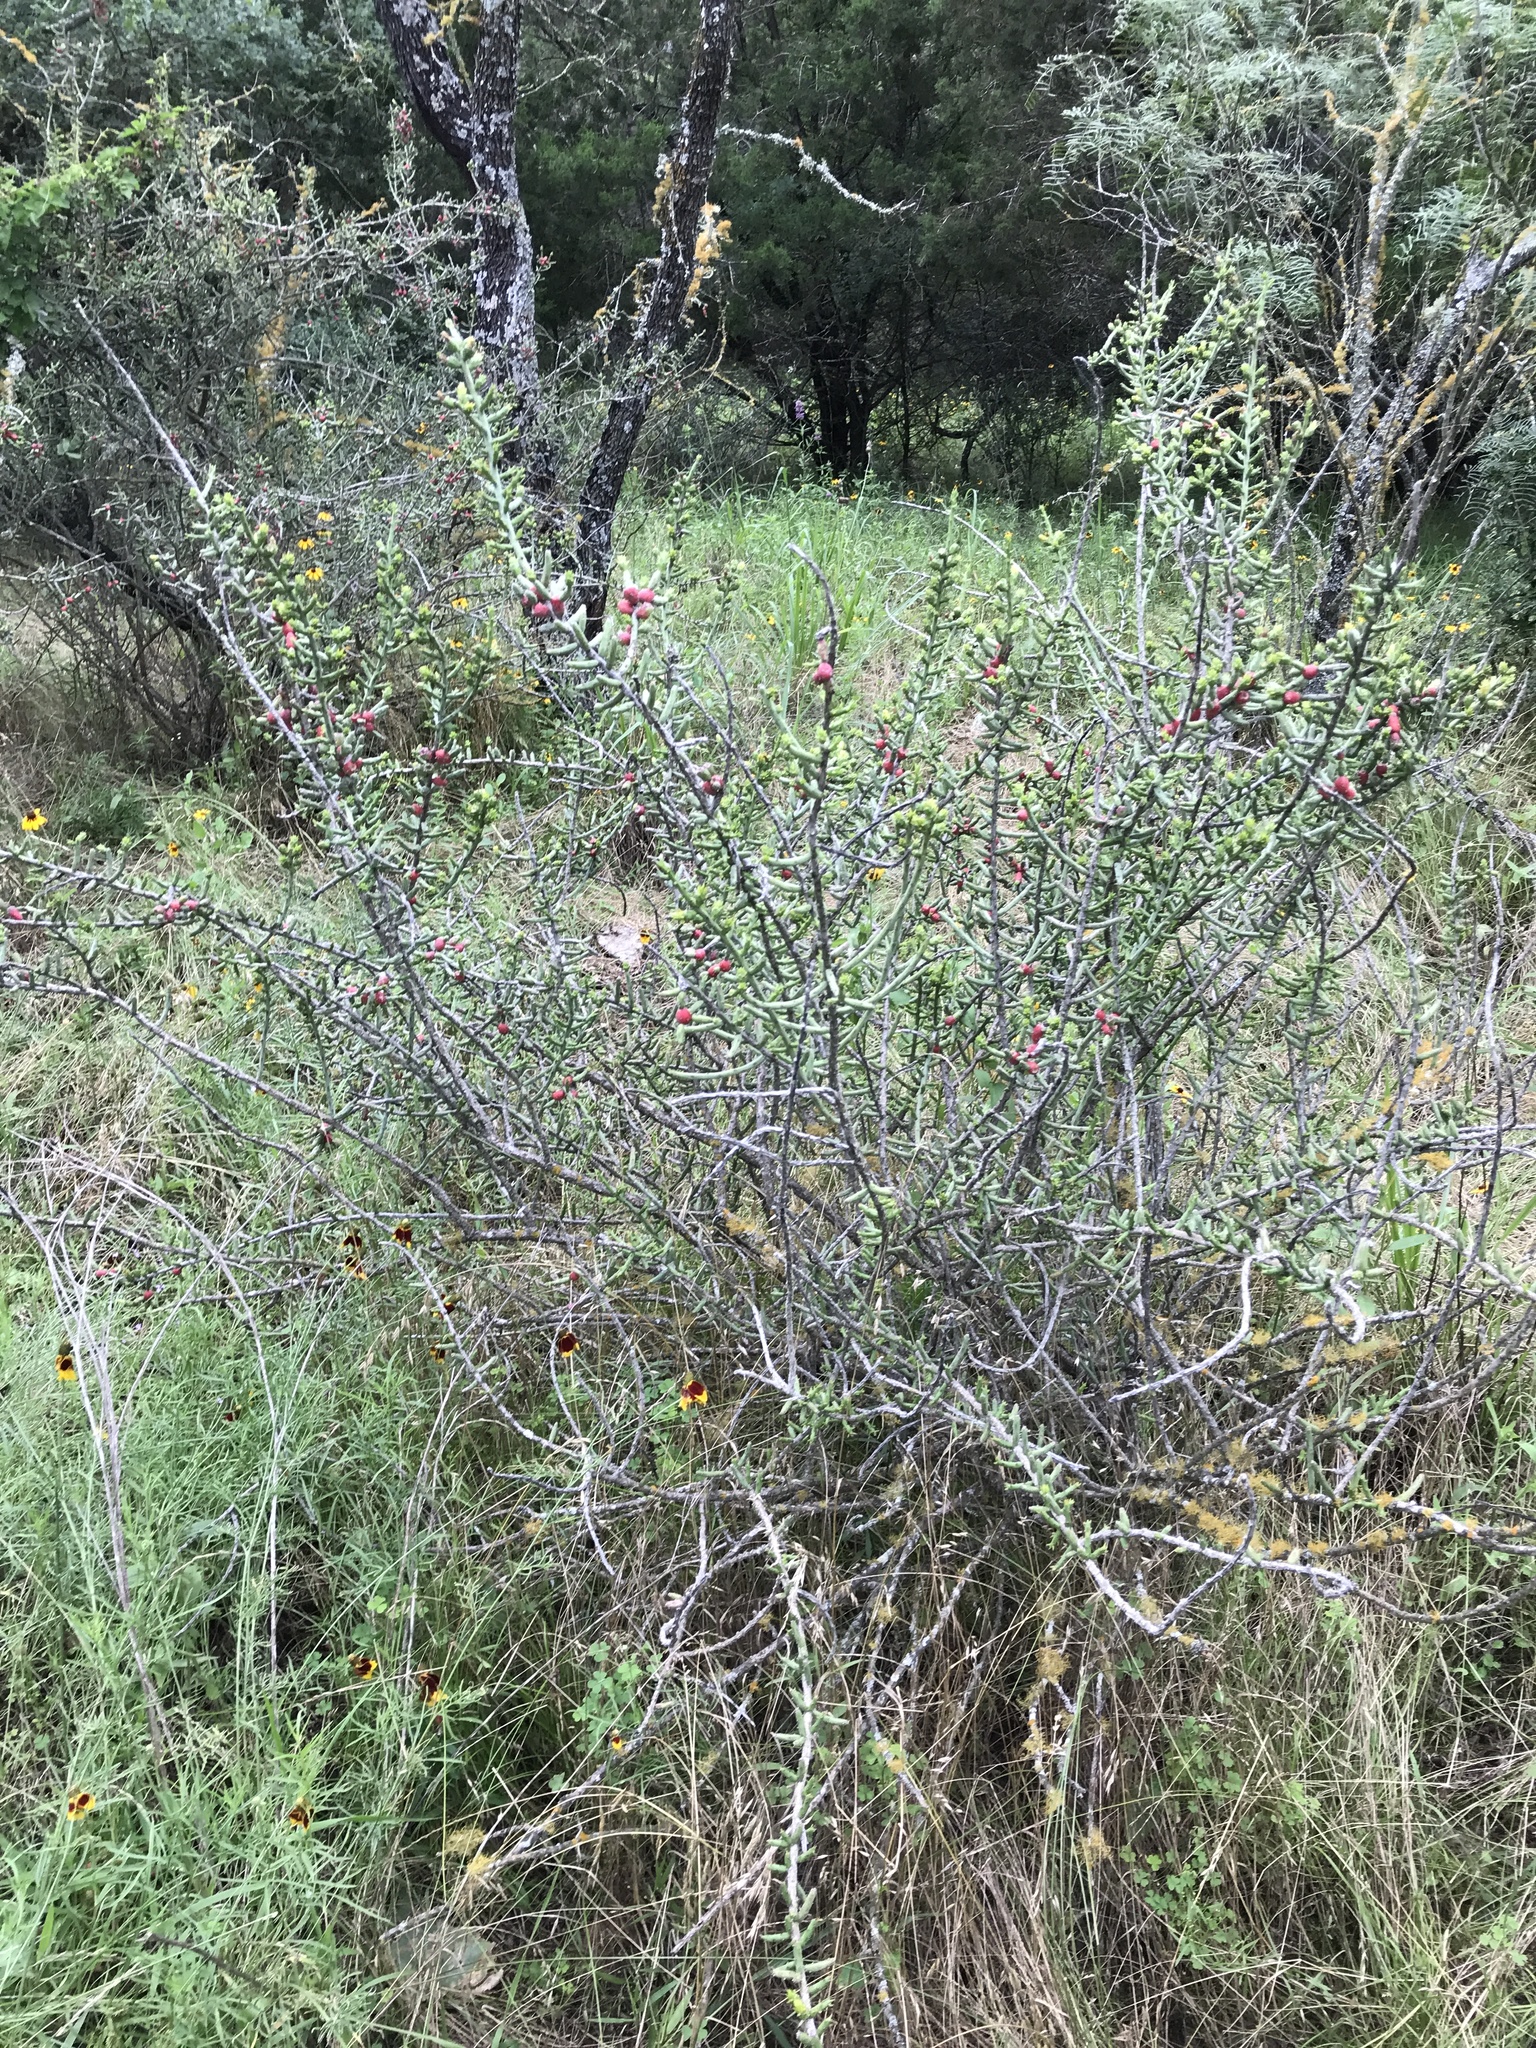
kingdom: Plantae
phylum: Tracheophyta
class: Magnoliopsida
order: Caryophyllales
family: Cactaceae
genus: Cylindropuntia
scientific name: Cylindropuntia leptocaulis
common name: Christmas cactus
